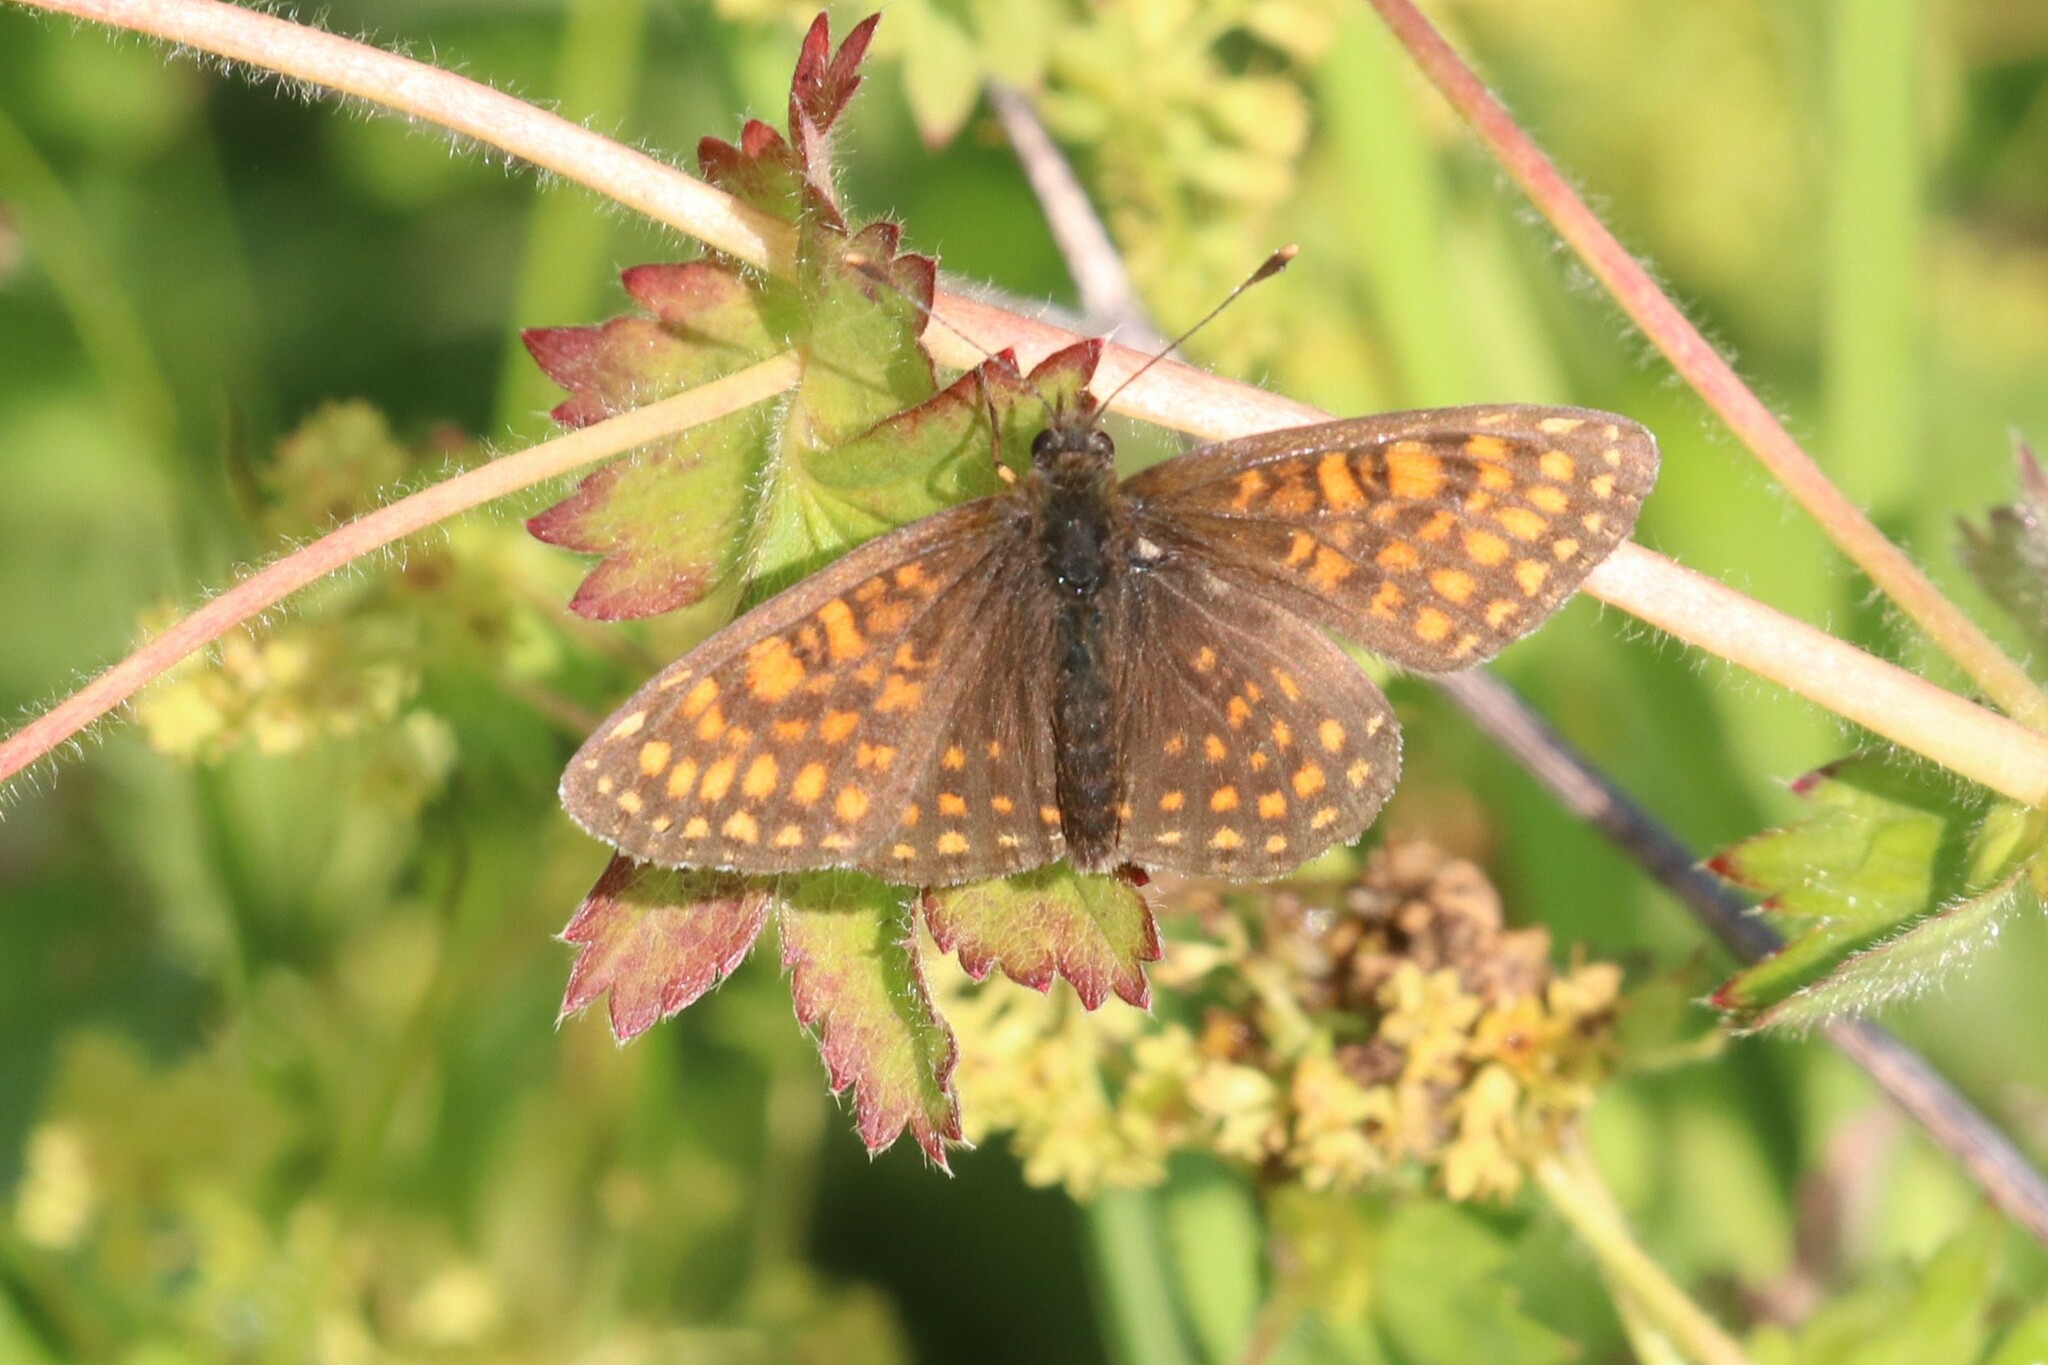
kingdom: Animalia
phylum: Arthropoda
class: Insecta
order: Lepidoptera
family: Nymphalidae
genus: Melitaea
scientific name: Melitaea
